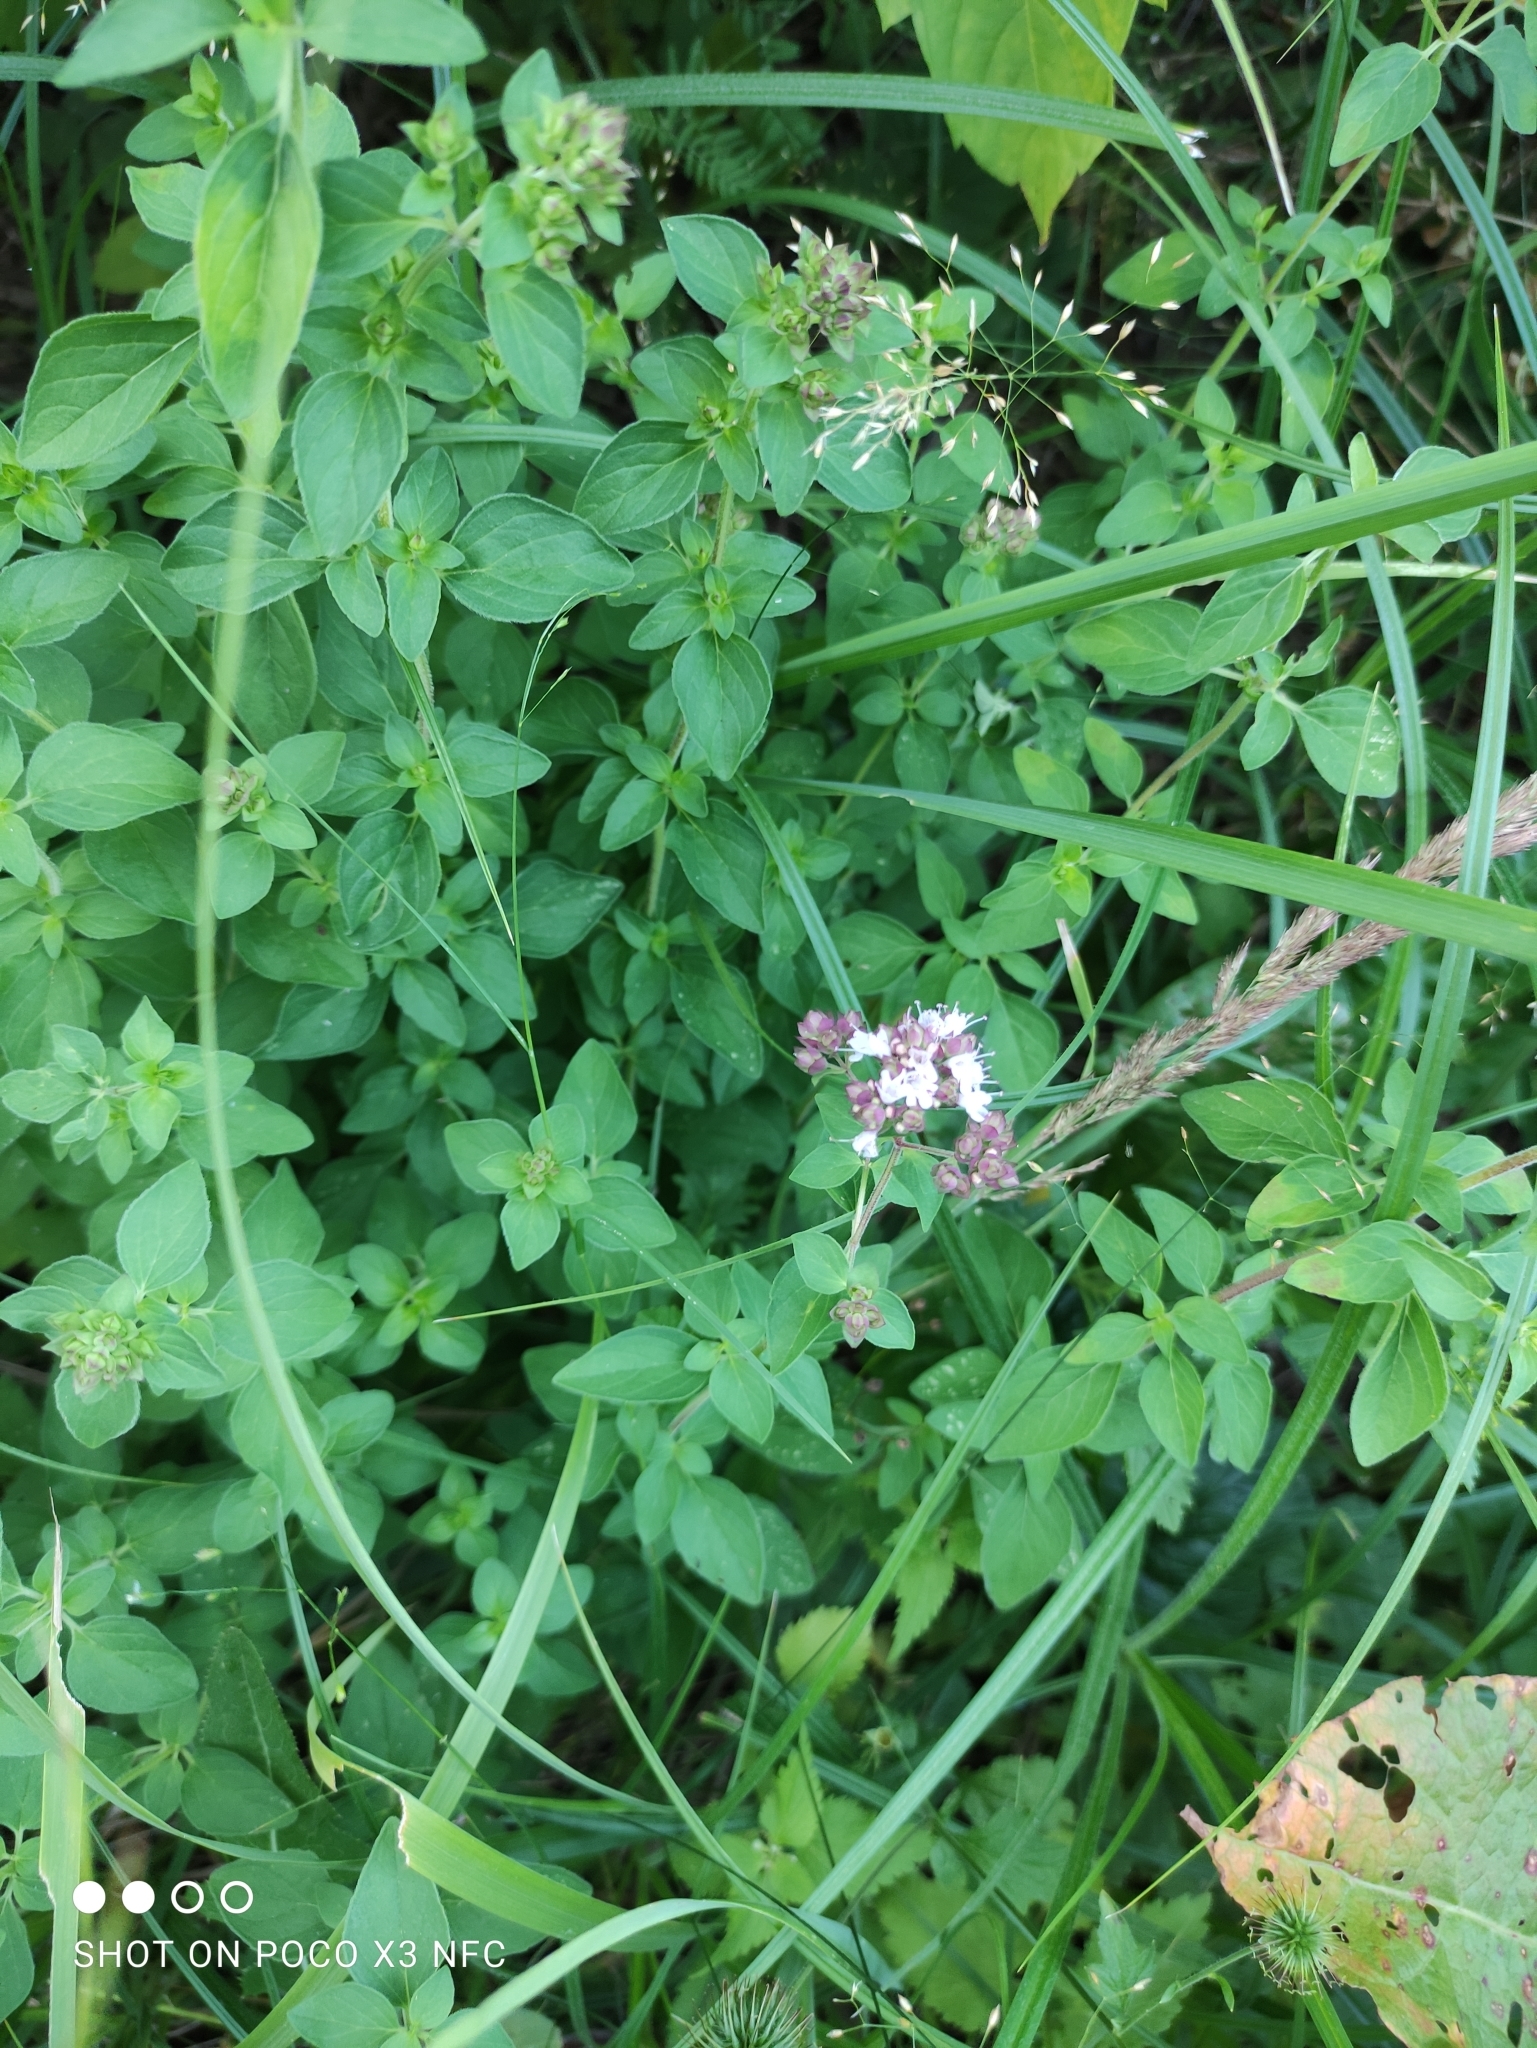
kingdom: Plantae
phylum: Tracheophyta
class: Magnoliopsida
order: Lamiales
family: Lamiaceae
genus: Origanum
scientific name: Origanum vulgare
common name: Wild marjoram
